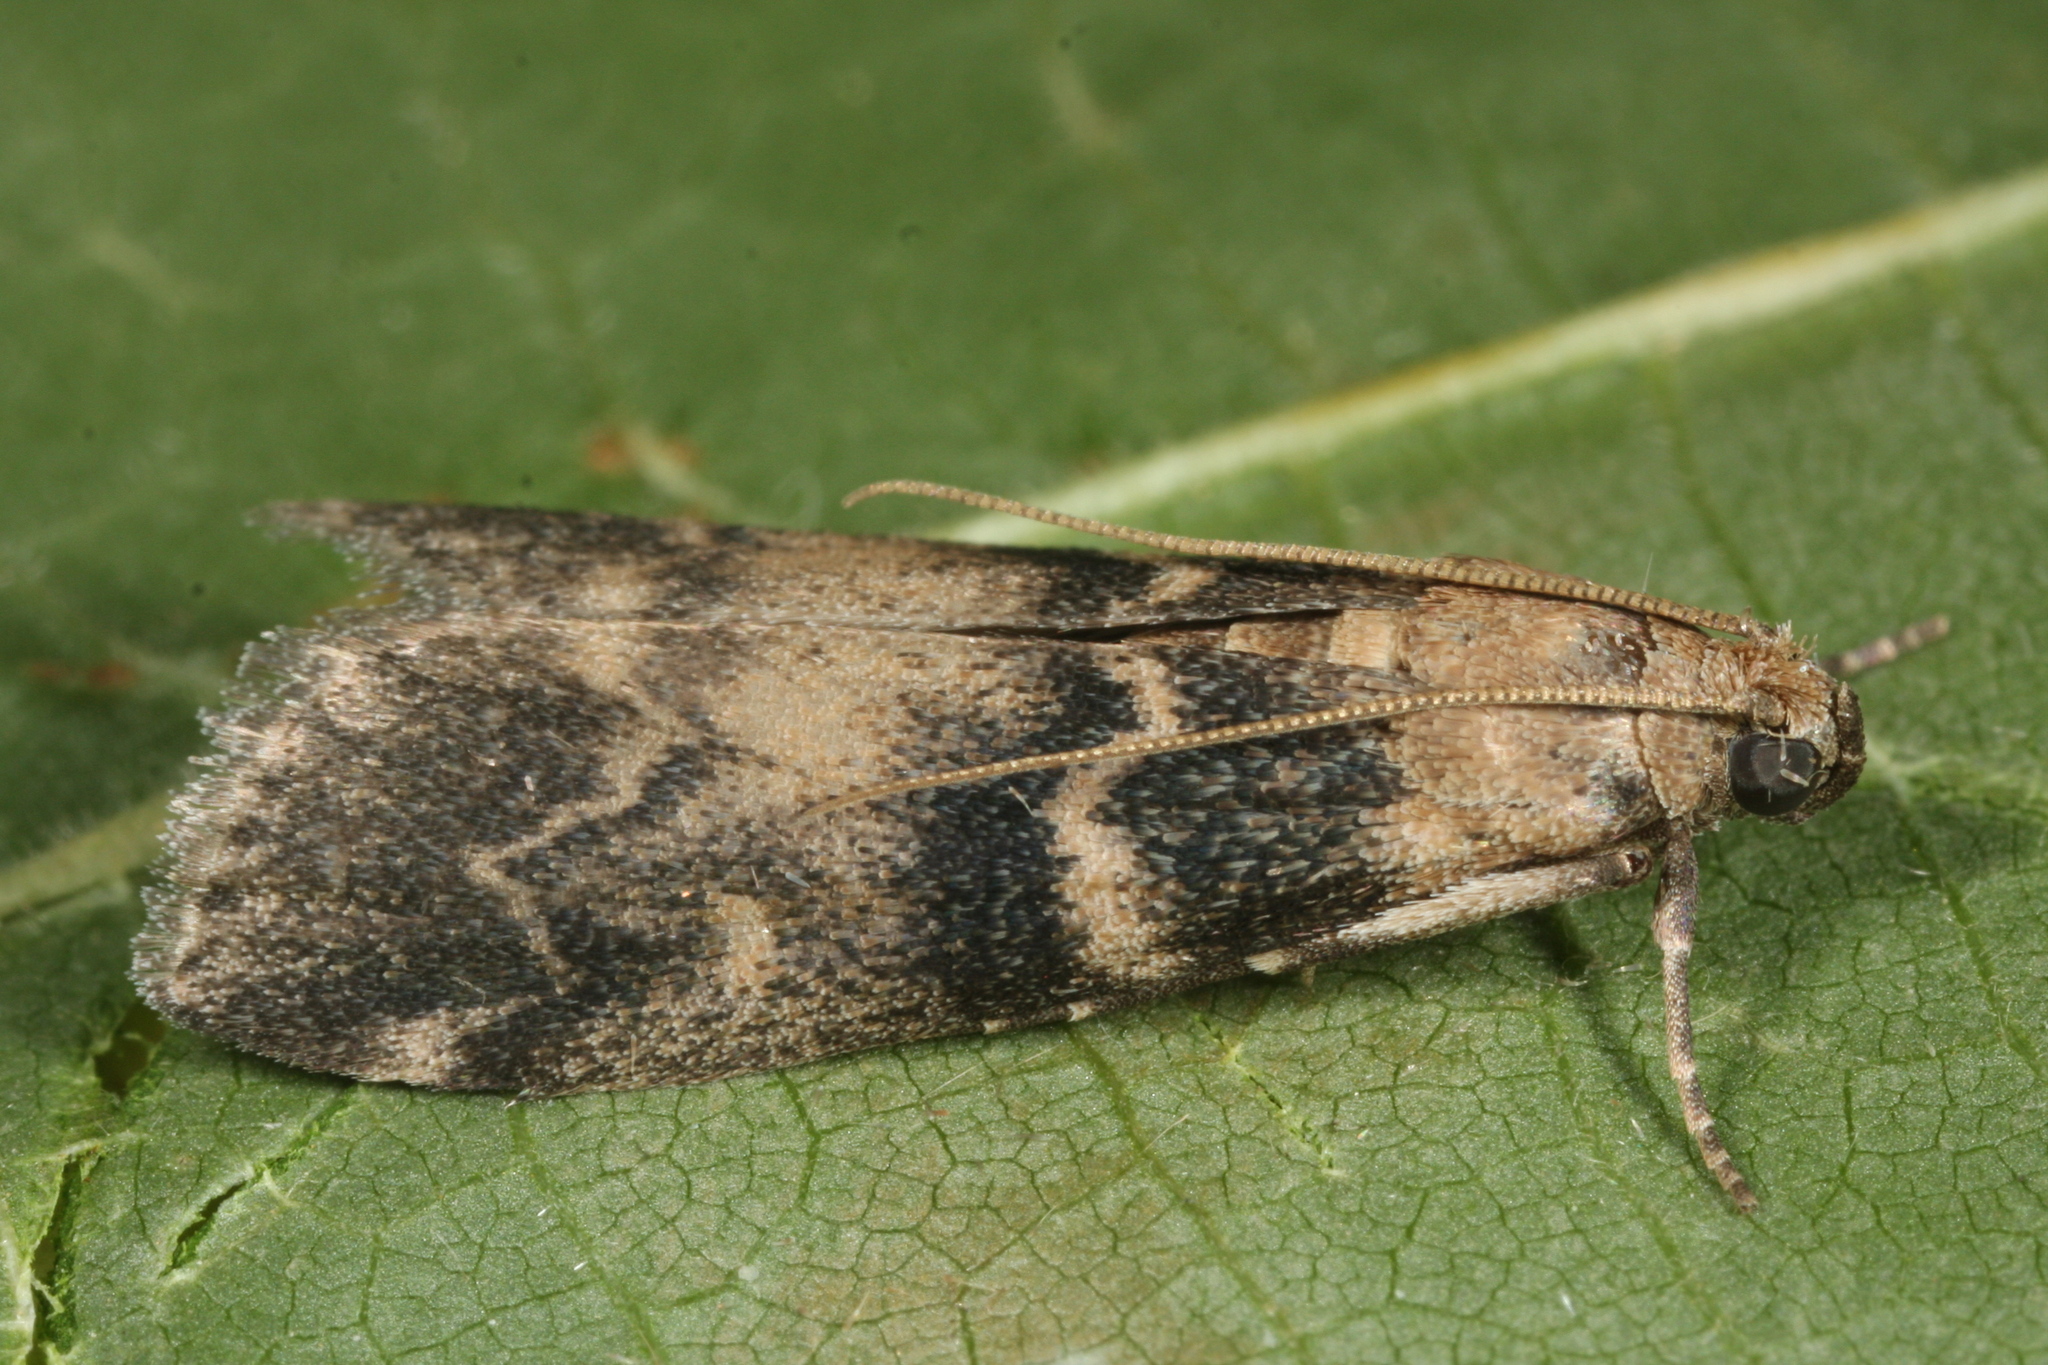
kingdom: Animalia
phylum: Arthropoda
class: Insecta
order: Lepidoptera
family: Pyralidae
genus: Euzophera
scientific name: Euzophera pinguis
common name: Ash-bark knot-horn
